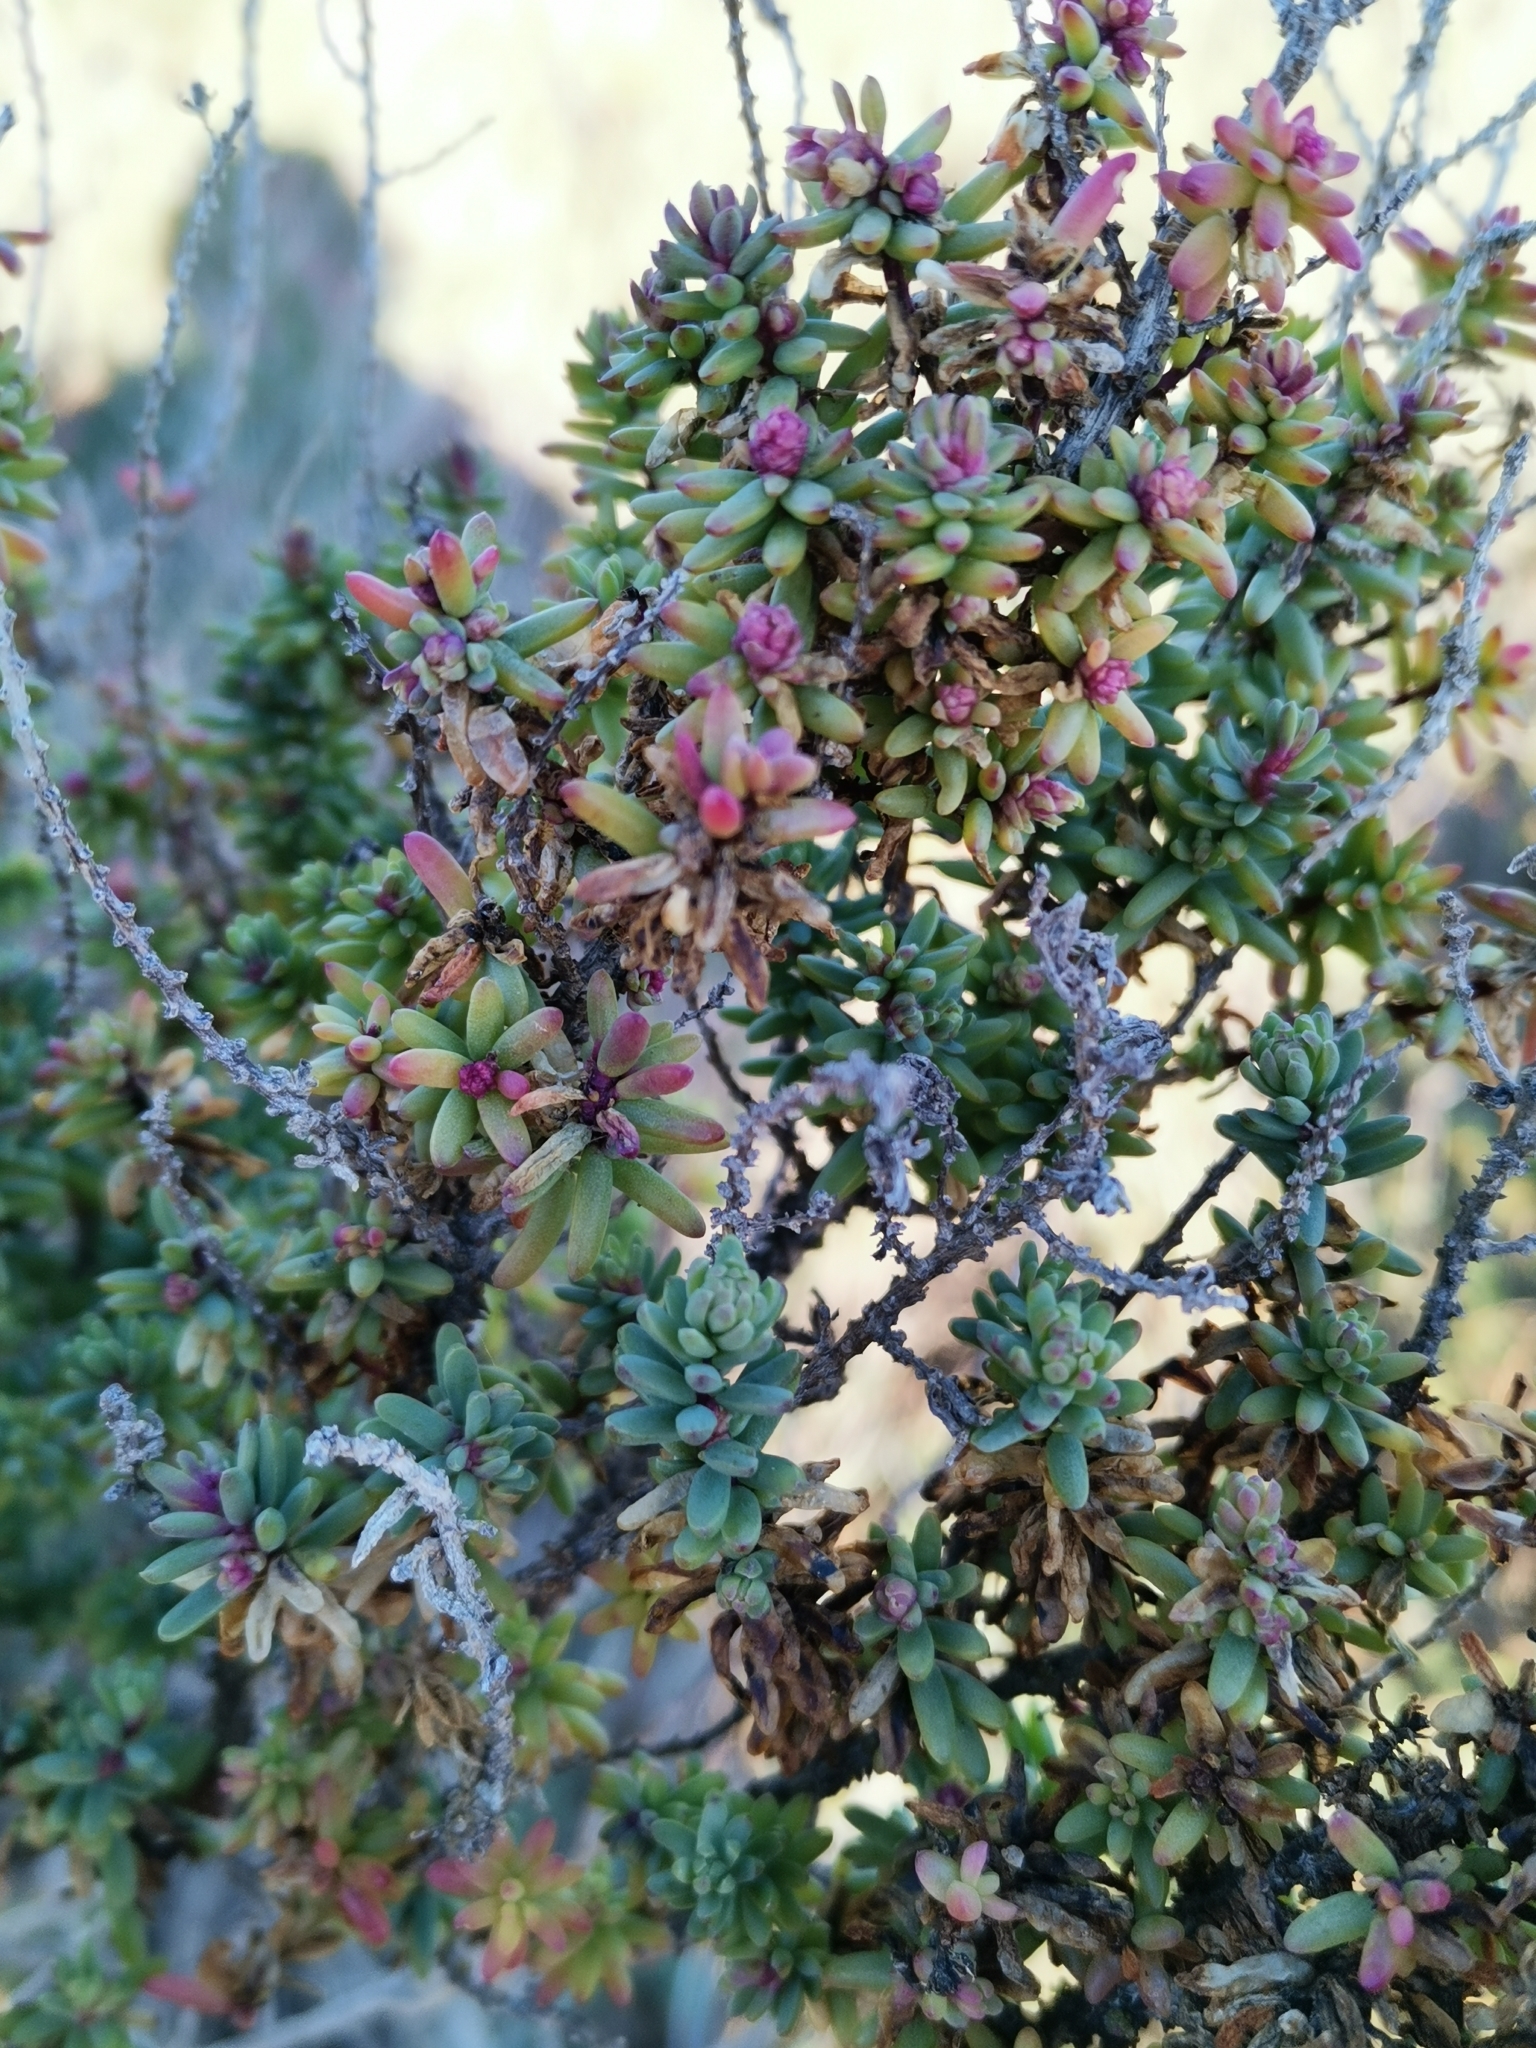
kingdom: Plantae
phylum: Tracheophyta
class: Magnoliopsida
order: Caryophyllales
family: Amaranthaceae
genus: Suaeda
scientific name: Suaeda vera
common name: Shrubby sea-blite
